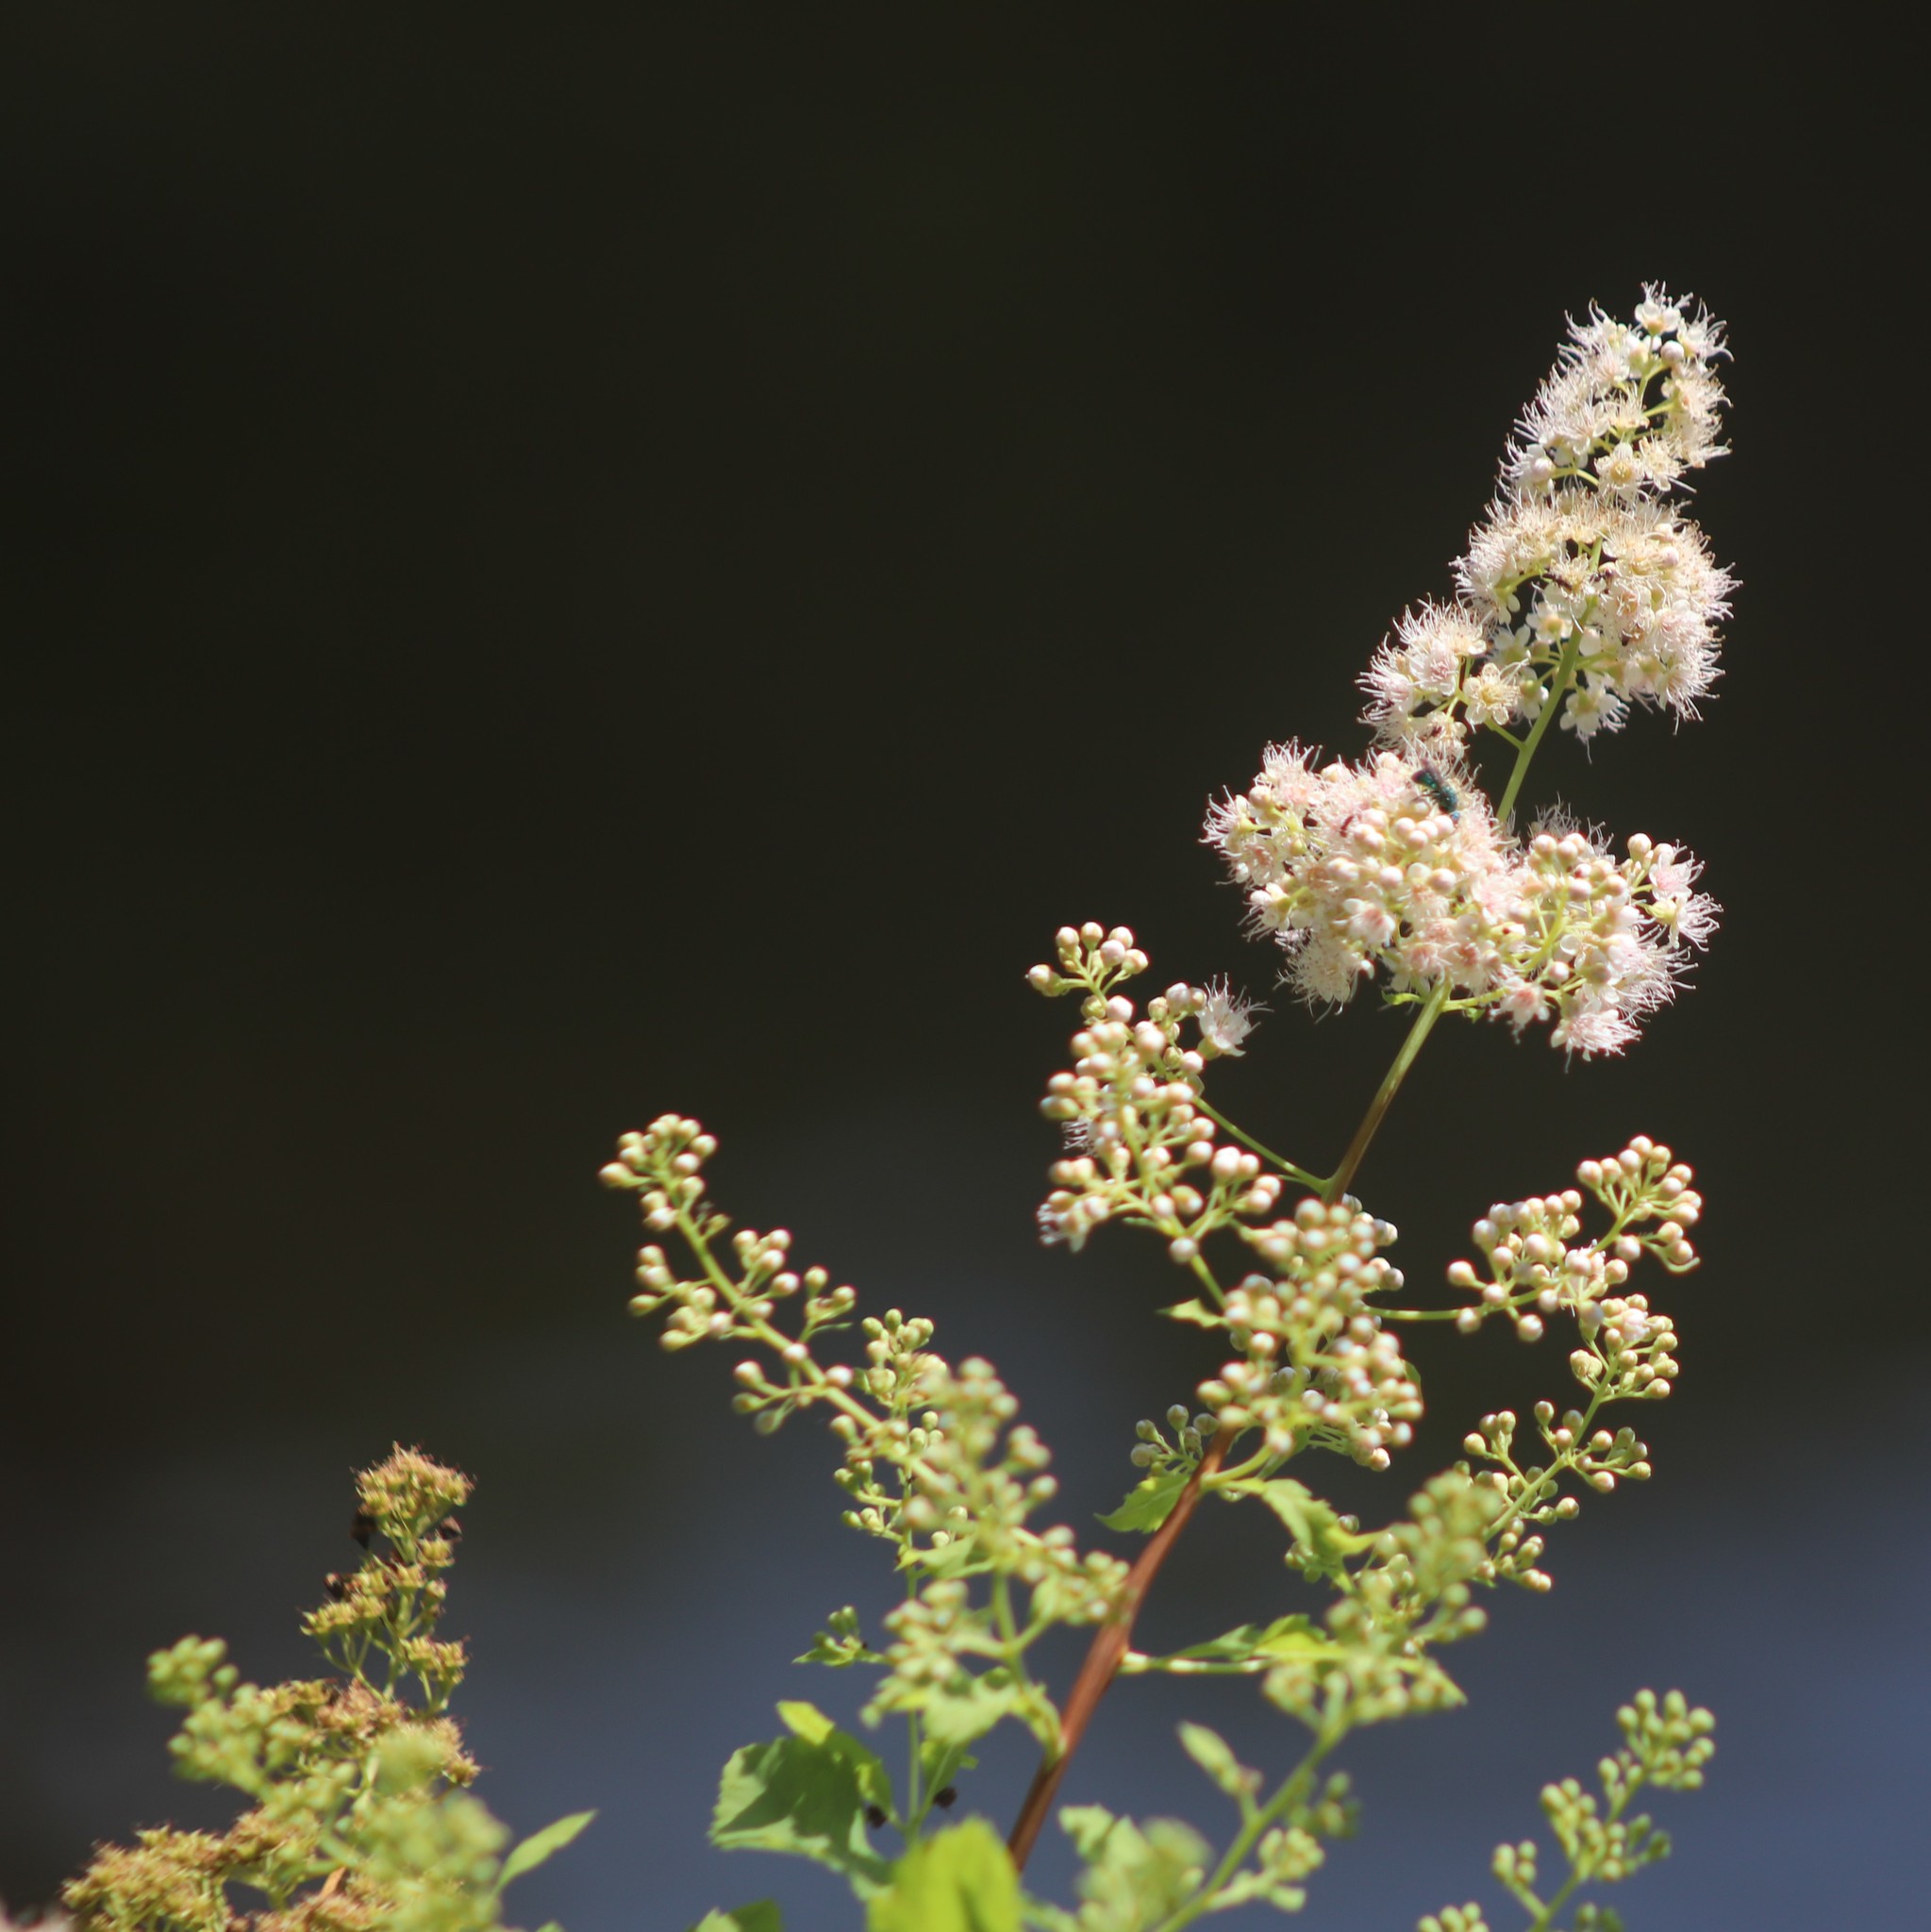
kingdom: Plantae
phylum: Tracheophyta
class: Magnoliopsida
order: Rosales
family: Rosaceae
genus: Spiraea
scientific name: Spiraea alba
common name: Pale bridewort
